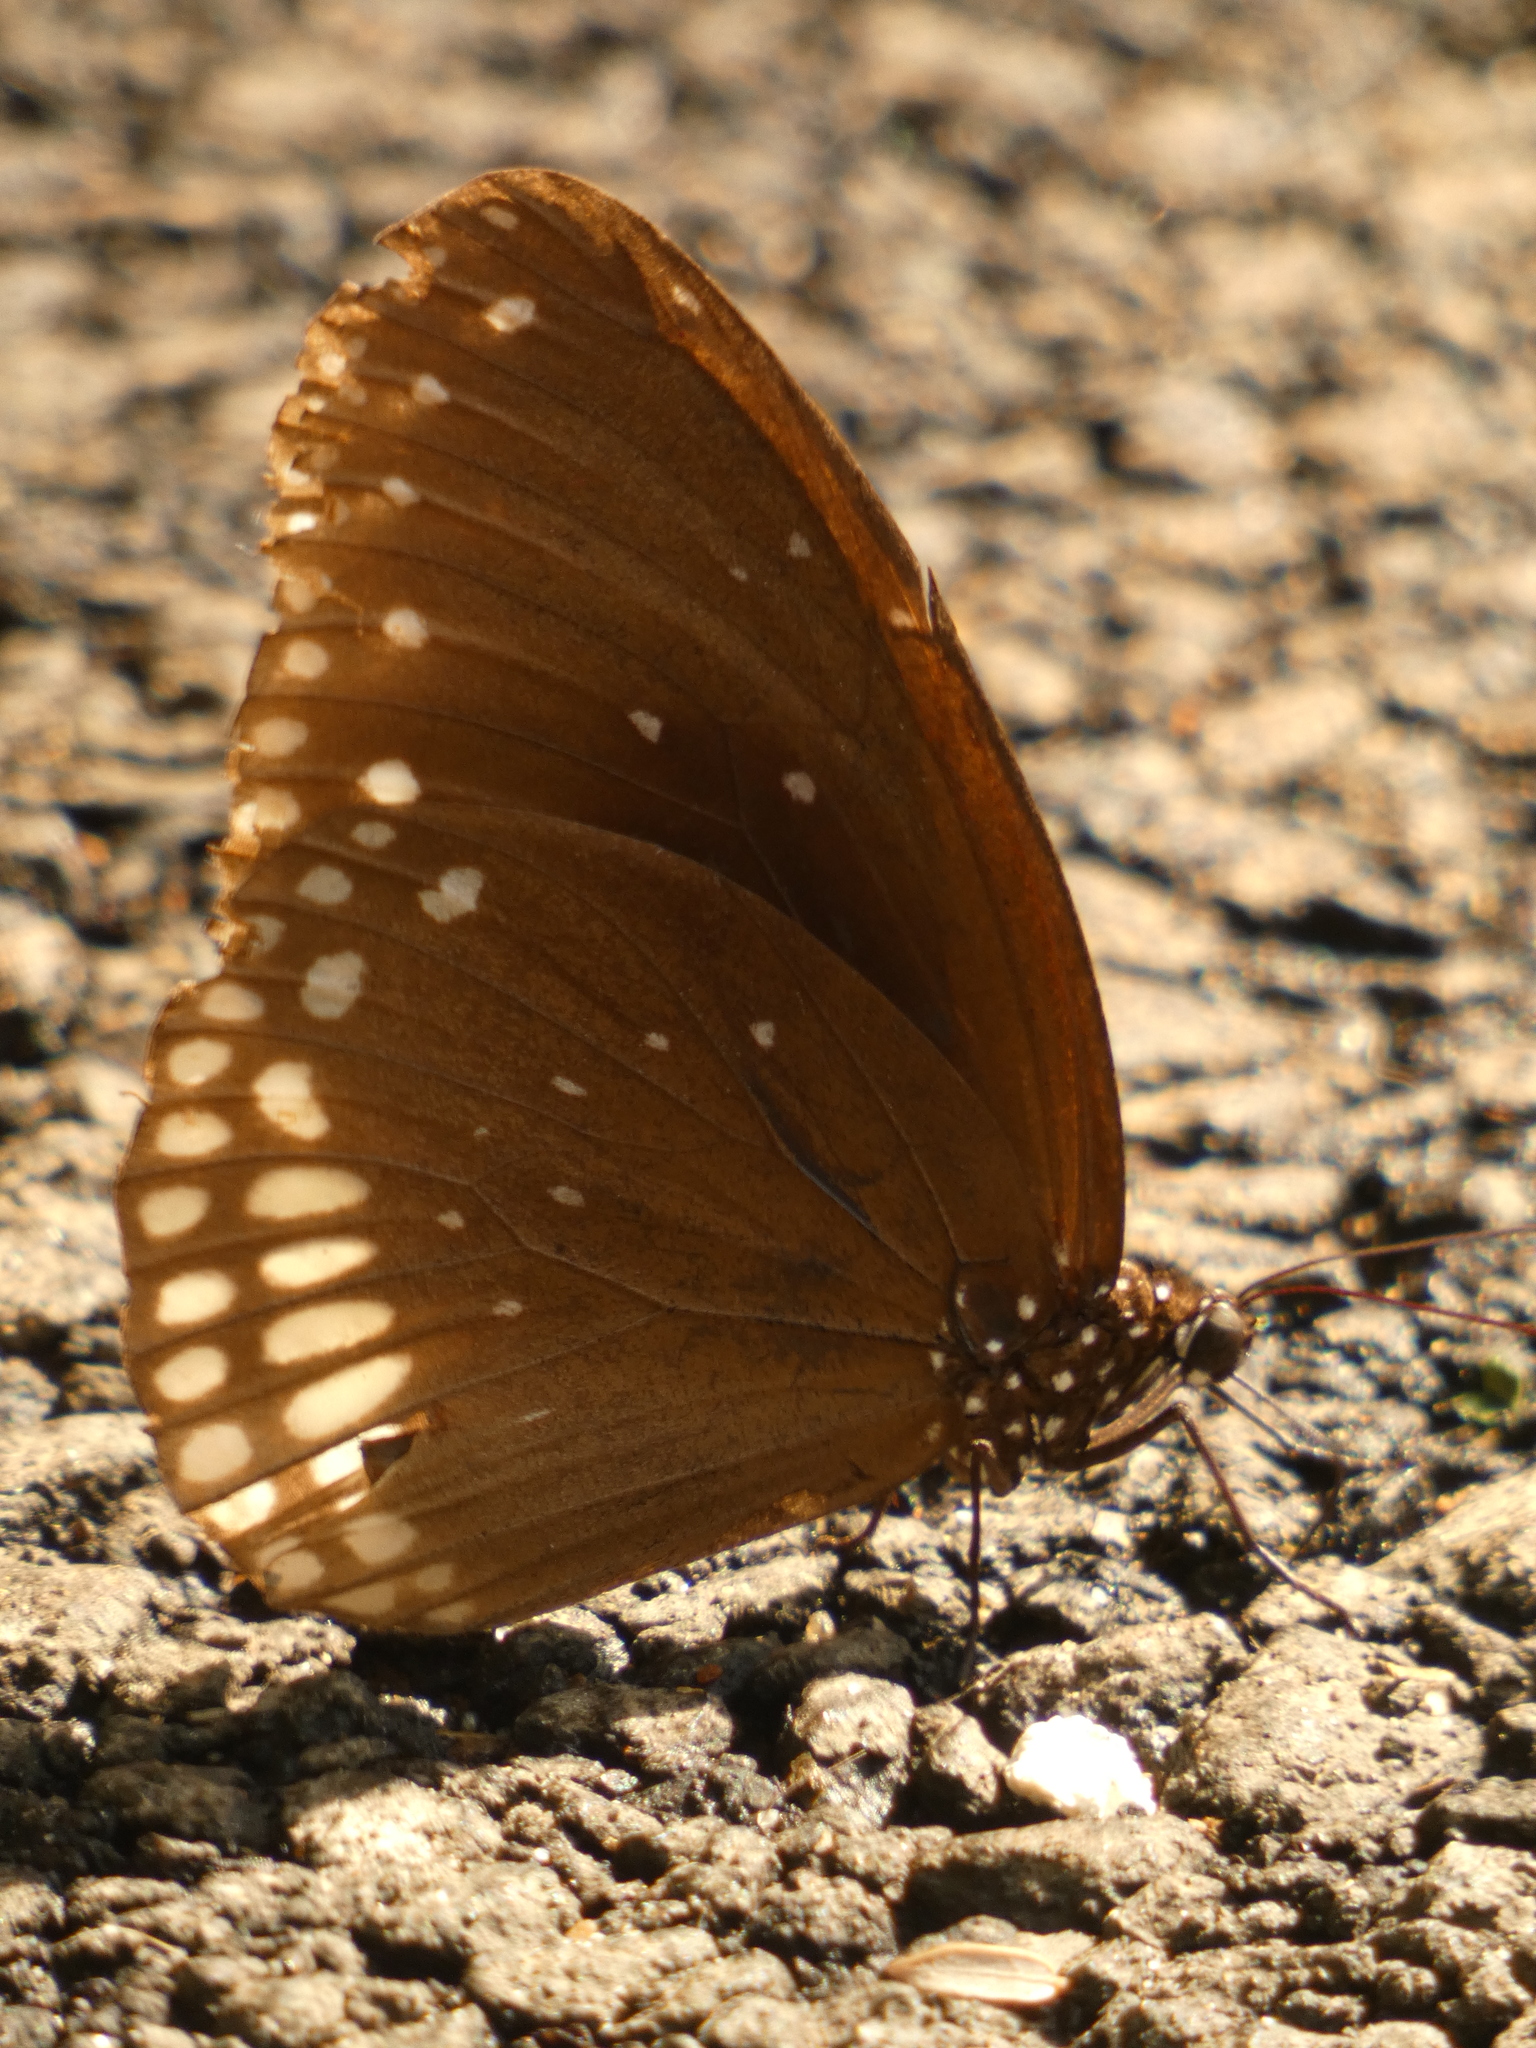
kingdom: Animalia
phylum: Arthropoda
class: Insecta
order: Lepidoptera
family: Nymphalidae
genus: Euploea
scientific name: Euploea core
